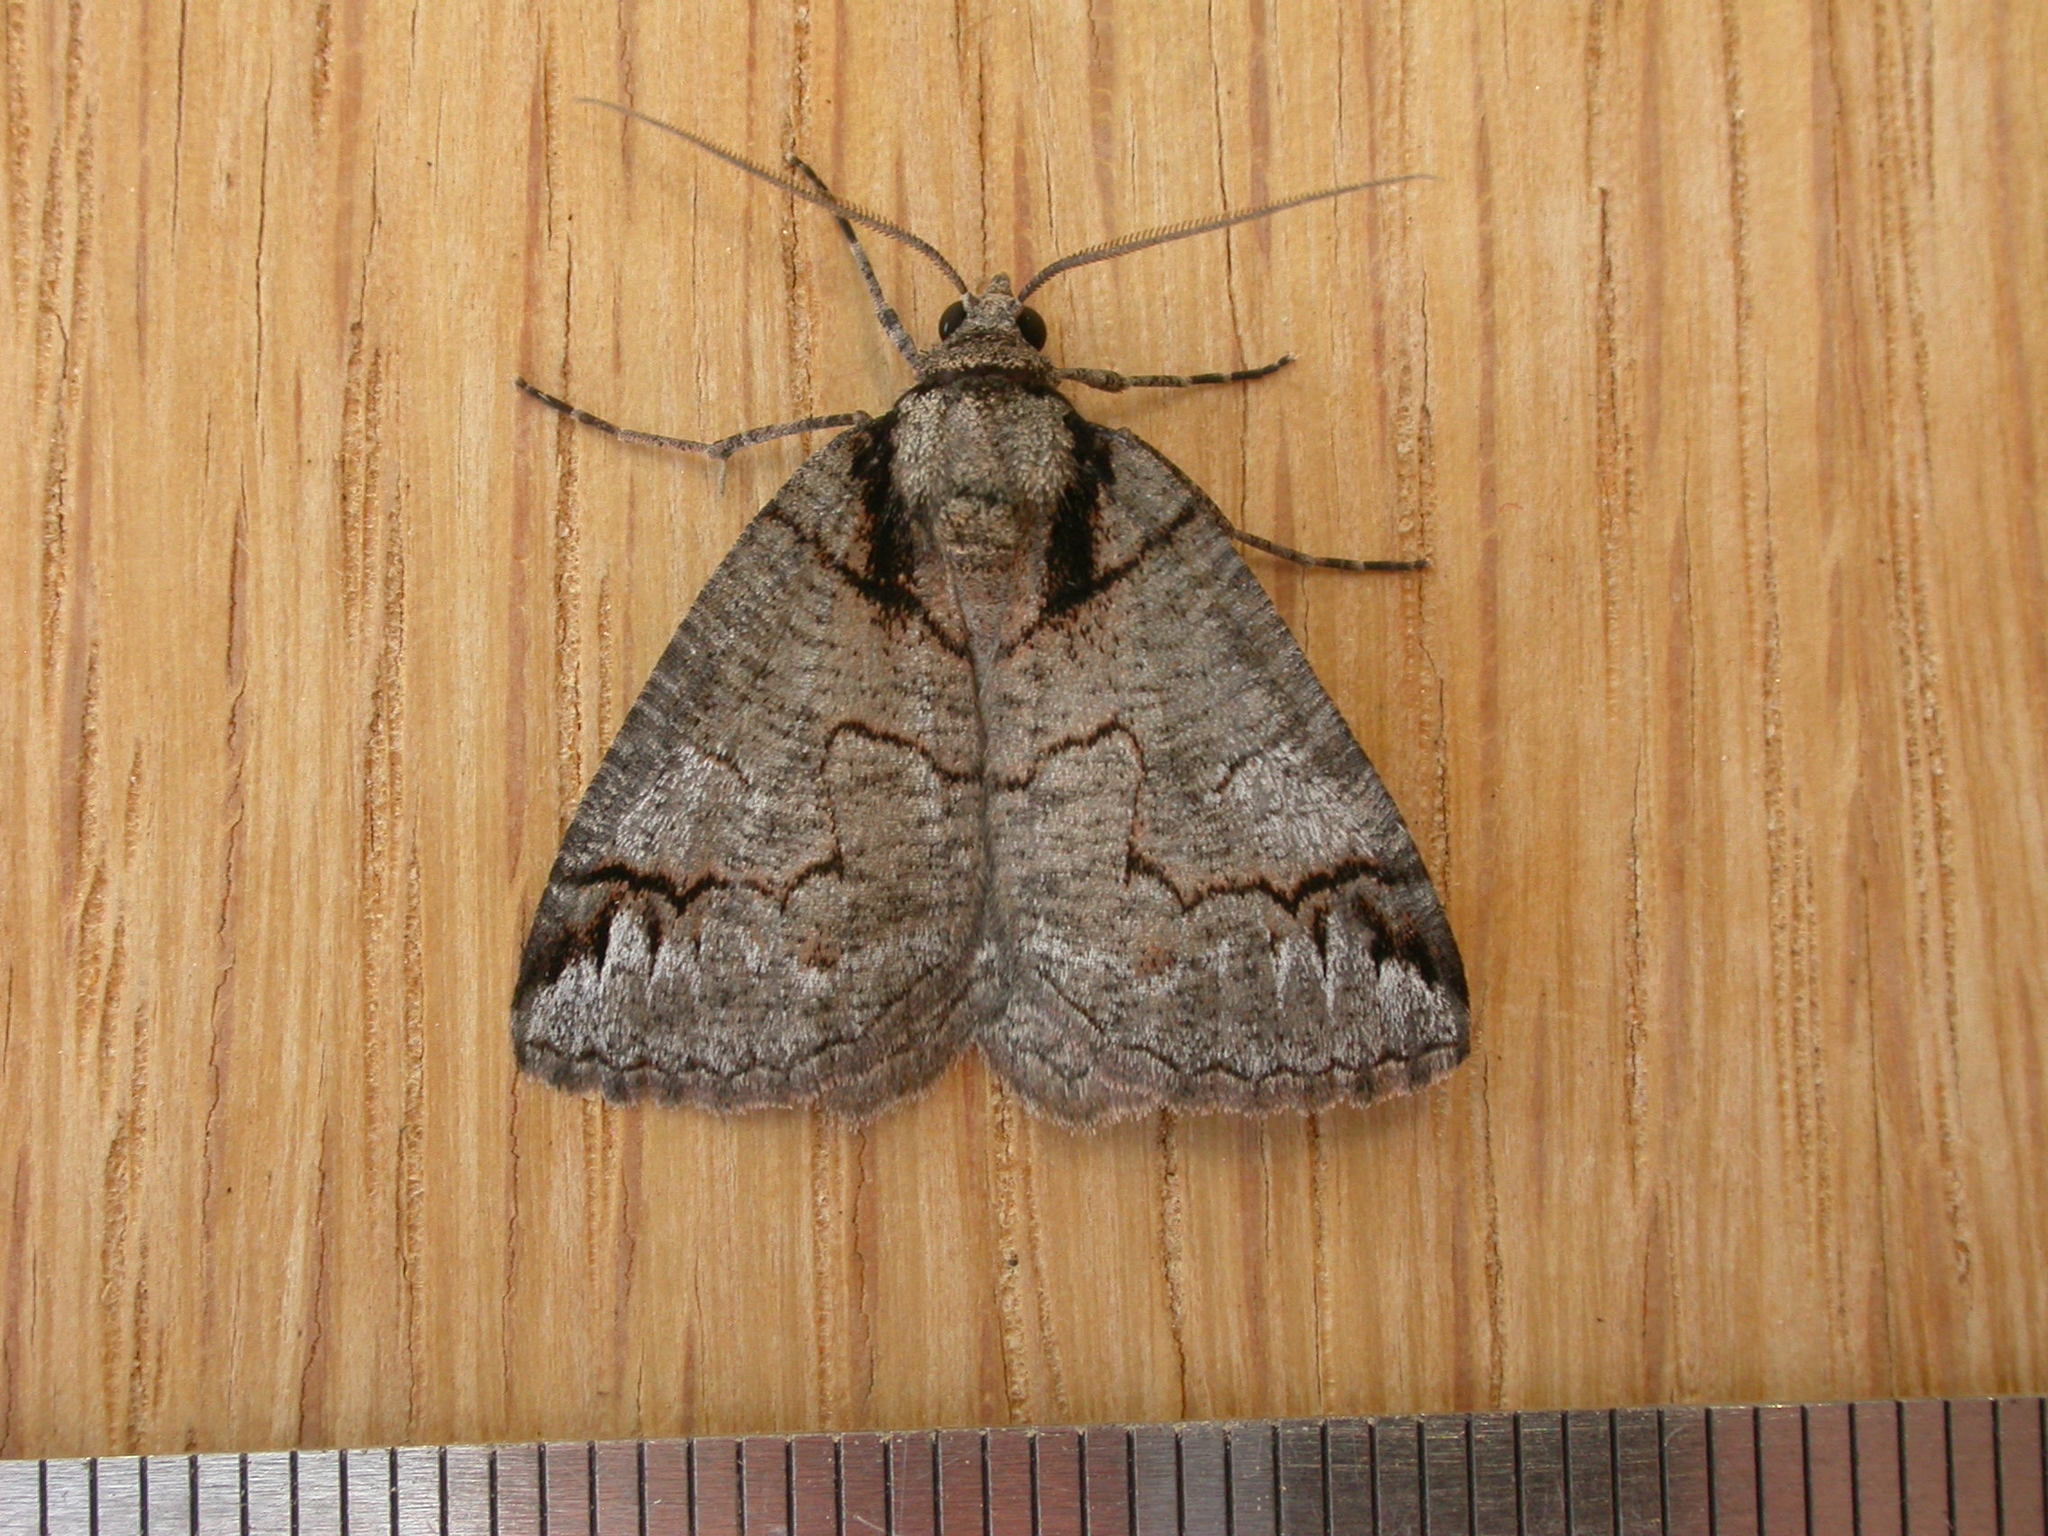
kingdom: Animalia
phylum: Arthropoda
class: Insecta
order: Lepidoptera
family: Geometridae
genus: Austroterpna
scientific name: Austroterpna paratorna
